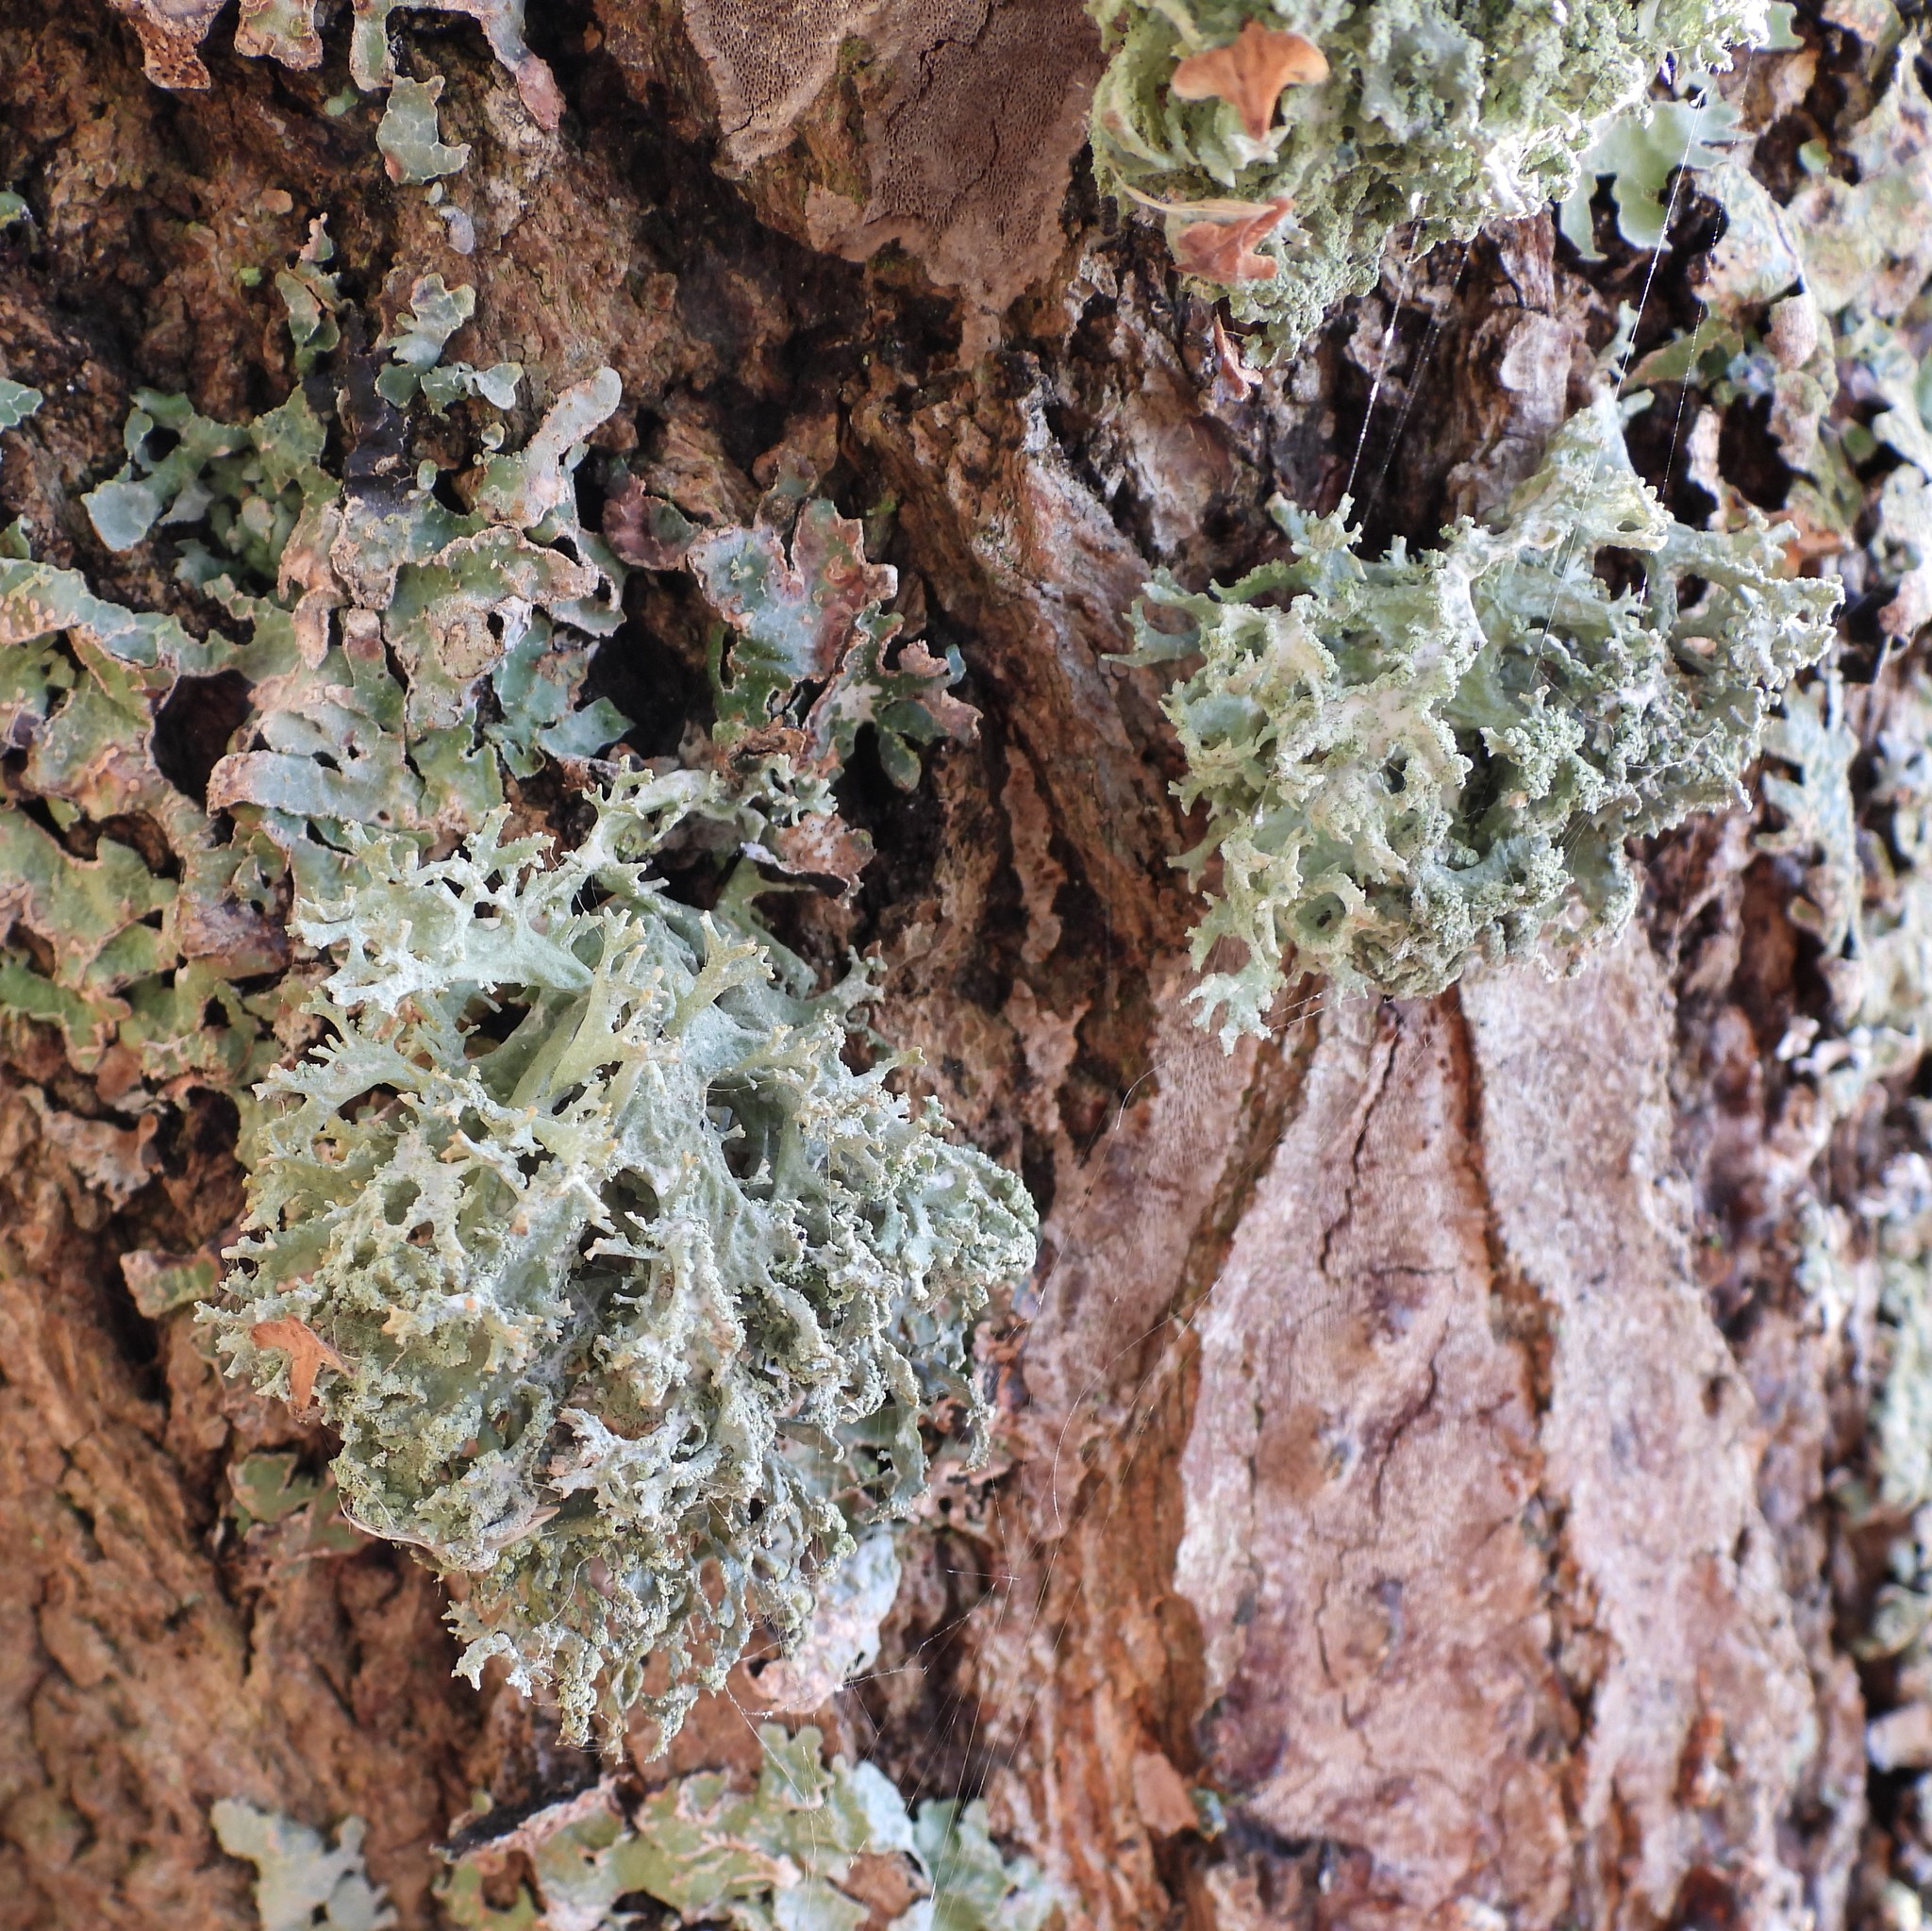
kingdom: Fungi
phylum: Ascomycota
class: Lecanoromycetes
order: Lecanorales
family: Parmeliaceae
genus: Evernia
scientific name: Evernia prunastri
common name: Oak moss
